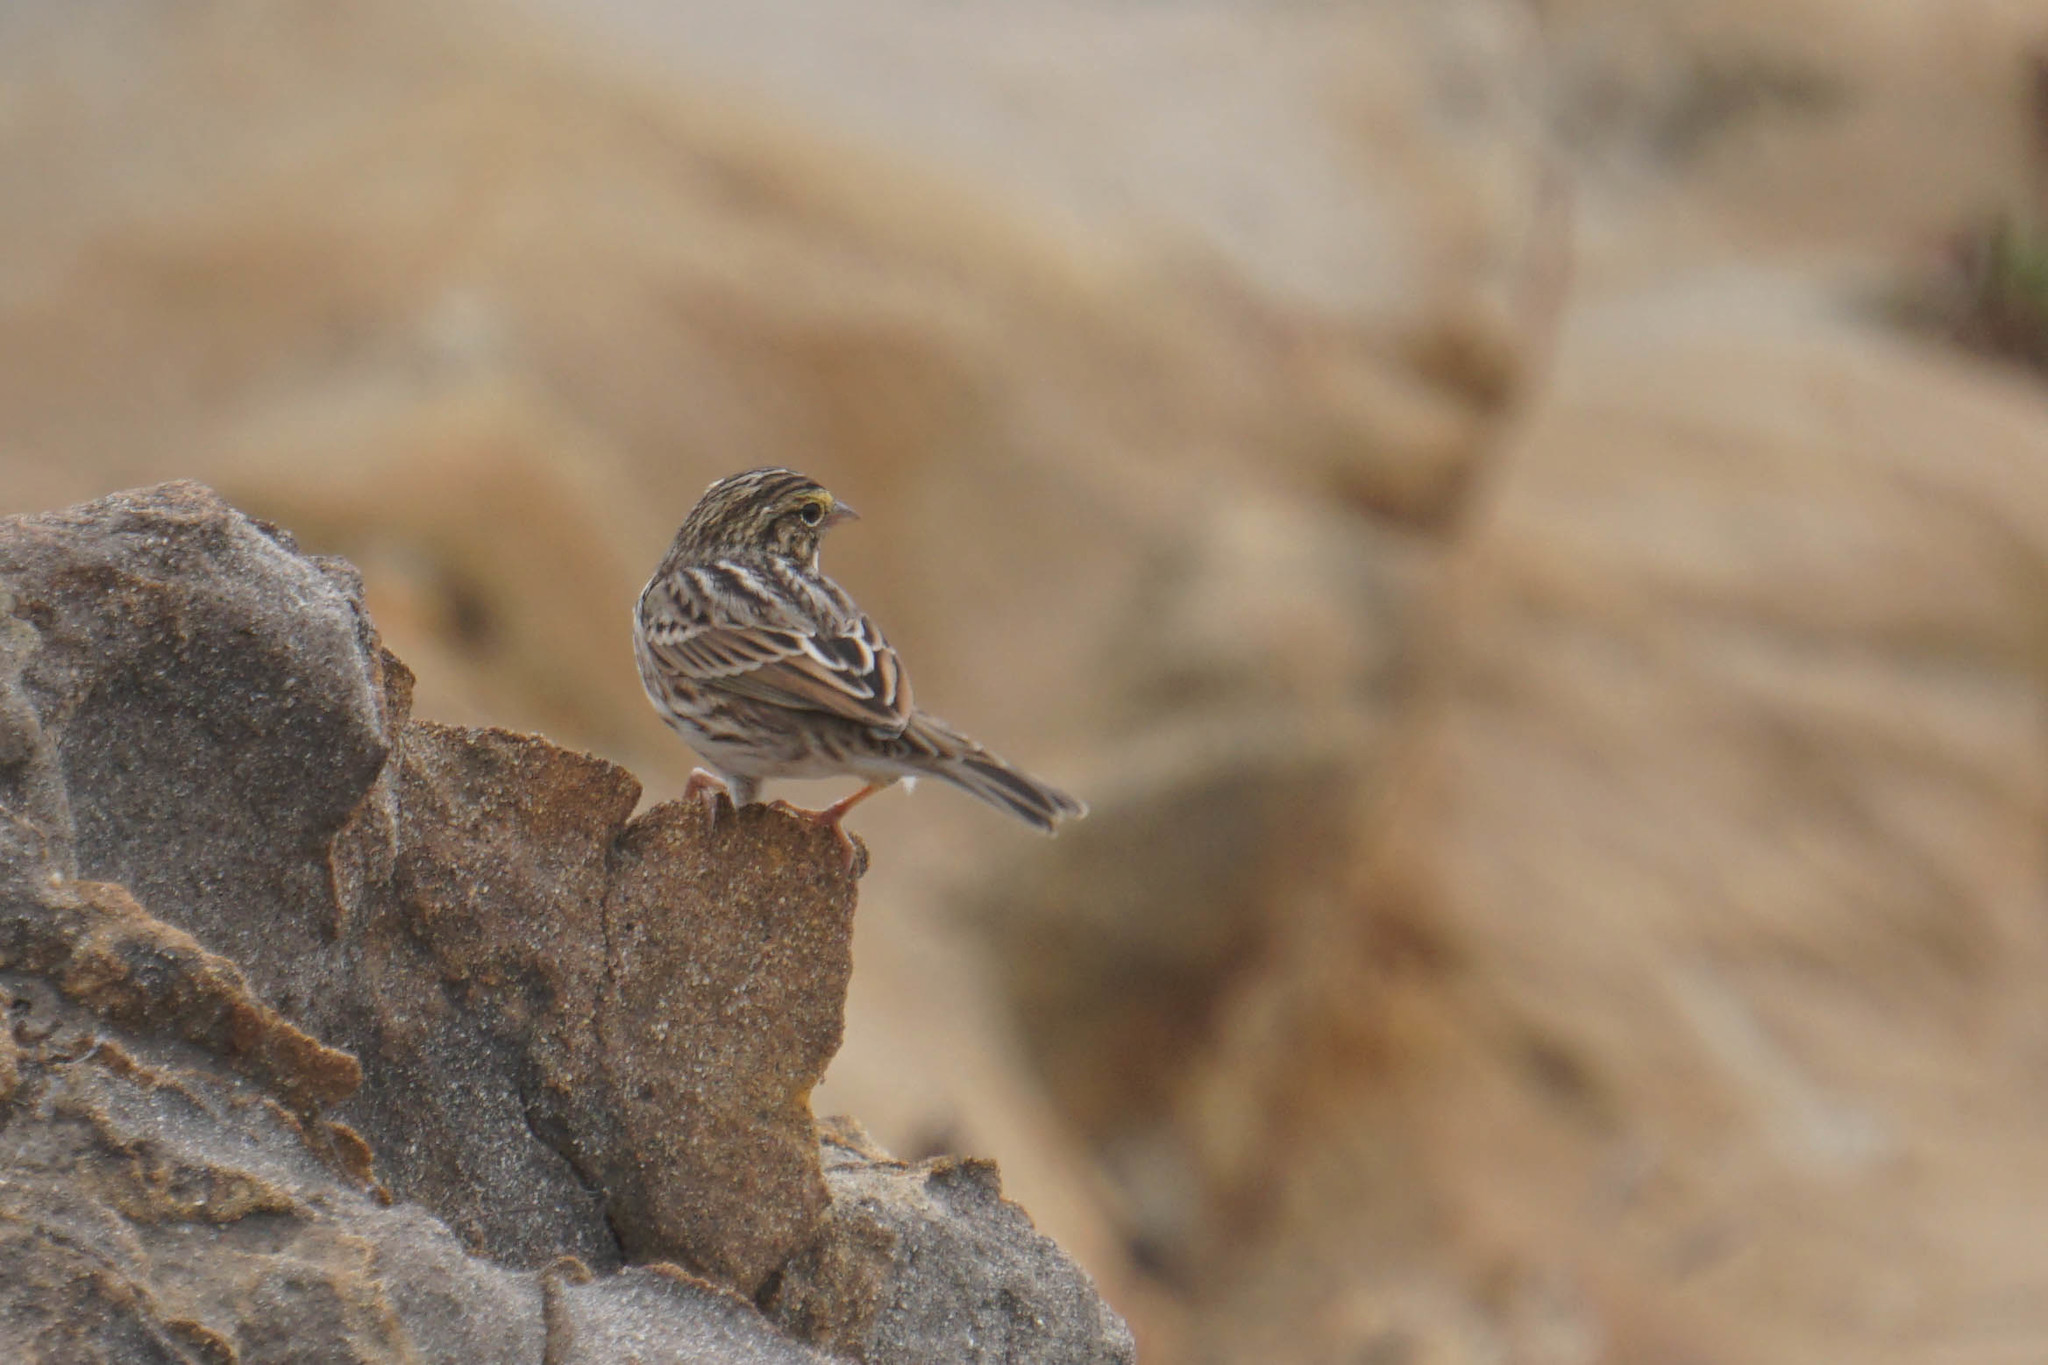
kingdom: Animalia
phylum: Chordata
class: Aves
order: Passeriformes
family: Passerellidae
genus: Passerculus
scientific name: Passerculus sandwichensis
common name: Savannah sparrow
